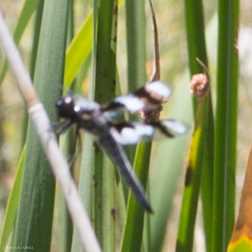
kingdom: Animalia
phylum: Arthropoda
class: Insecta
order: Odonata
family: Libellulidae
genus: Libellula
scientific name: Libellula forensis
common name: Eight-spotted skimmer
